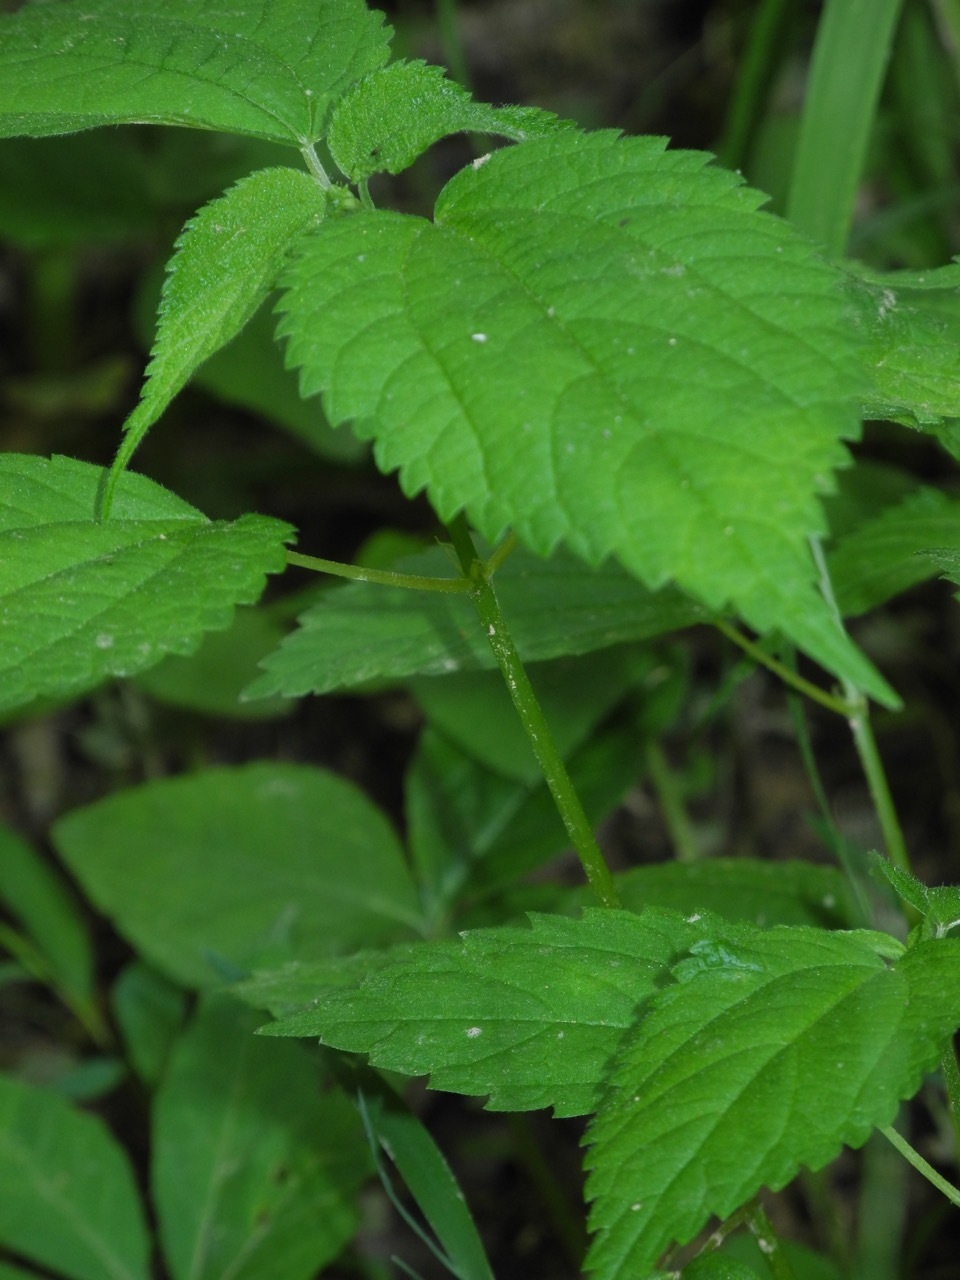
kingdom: Plantae
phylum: Tracheophyta
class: Magnoliopsida
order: Rosales
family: Urticaceae
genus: Boehmeria
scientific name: Boehmeria cylindrica
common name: Bog-hemp
